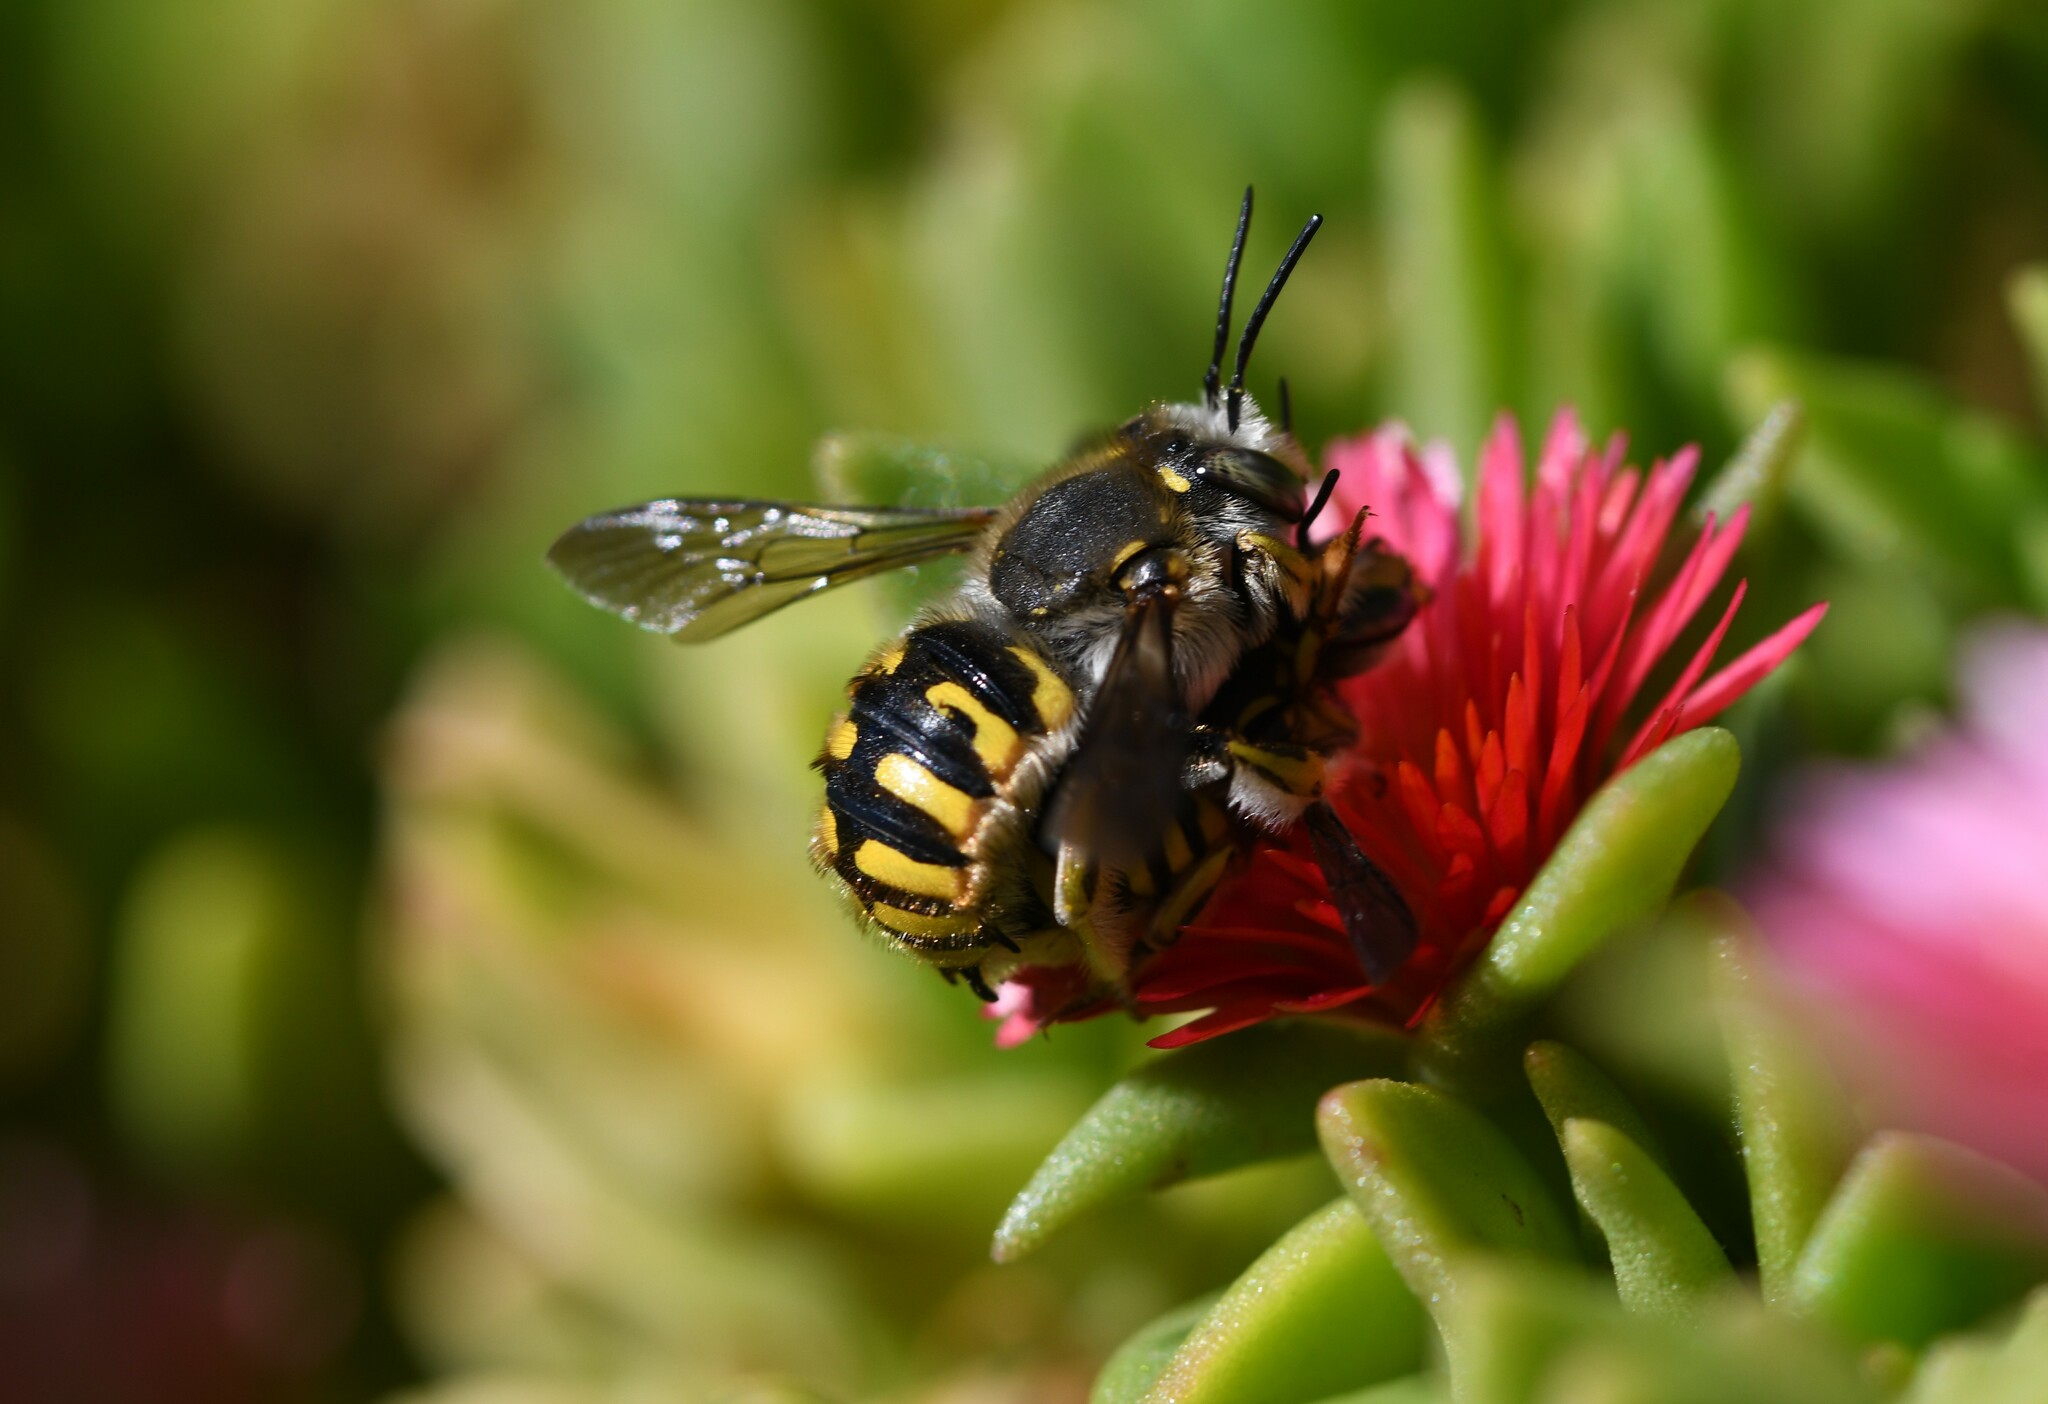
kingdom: Animalia
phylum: Arthropoda
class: Insecta
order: Hymenoptera
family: Megachilidae
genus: Anthidium
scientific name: Anthidium manicatum
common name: Wool carder bee
